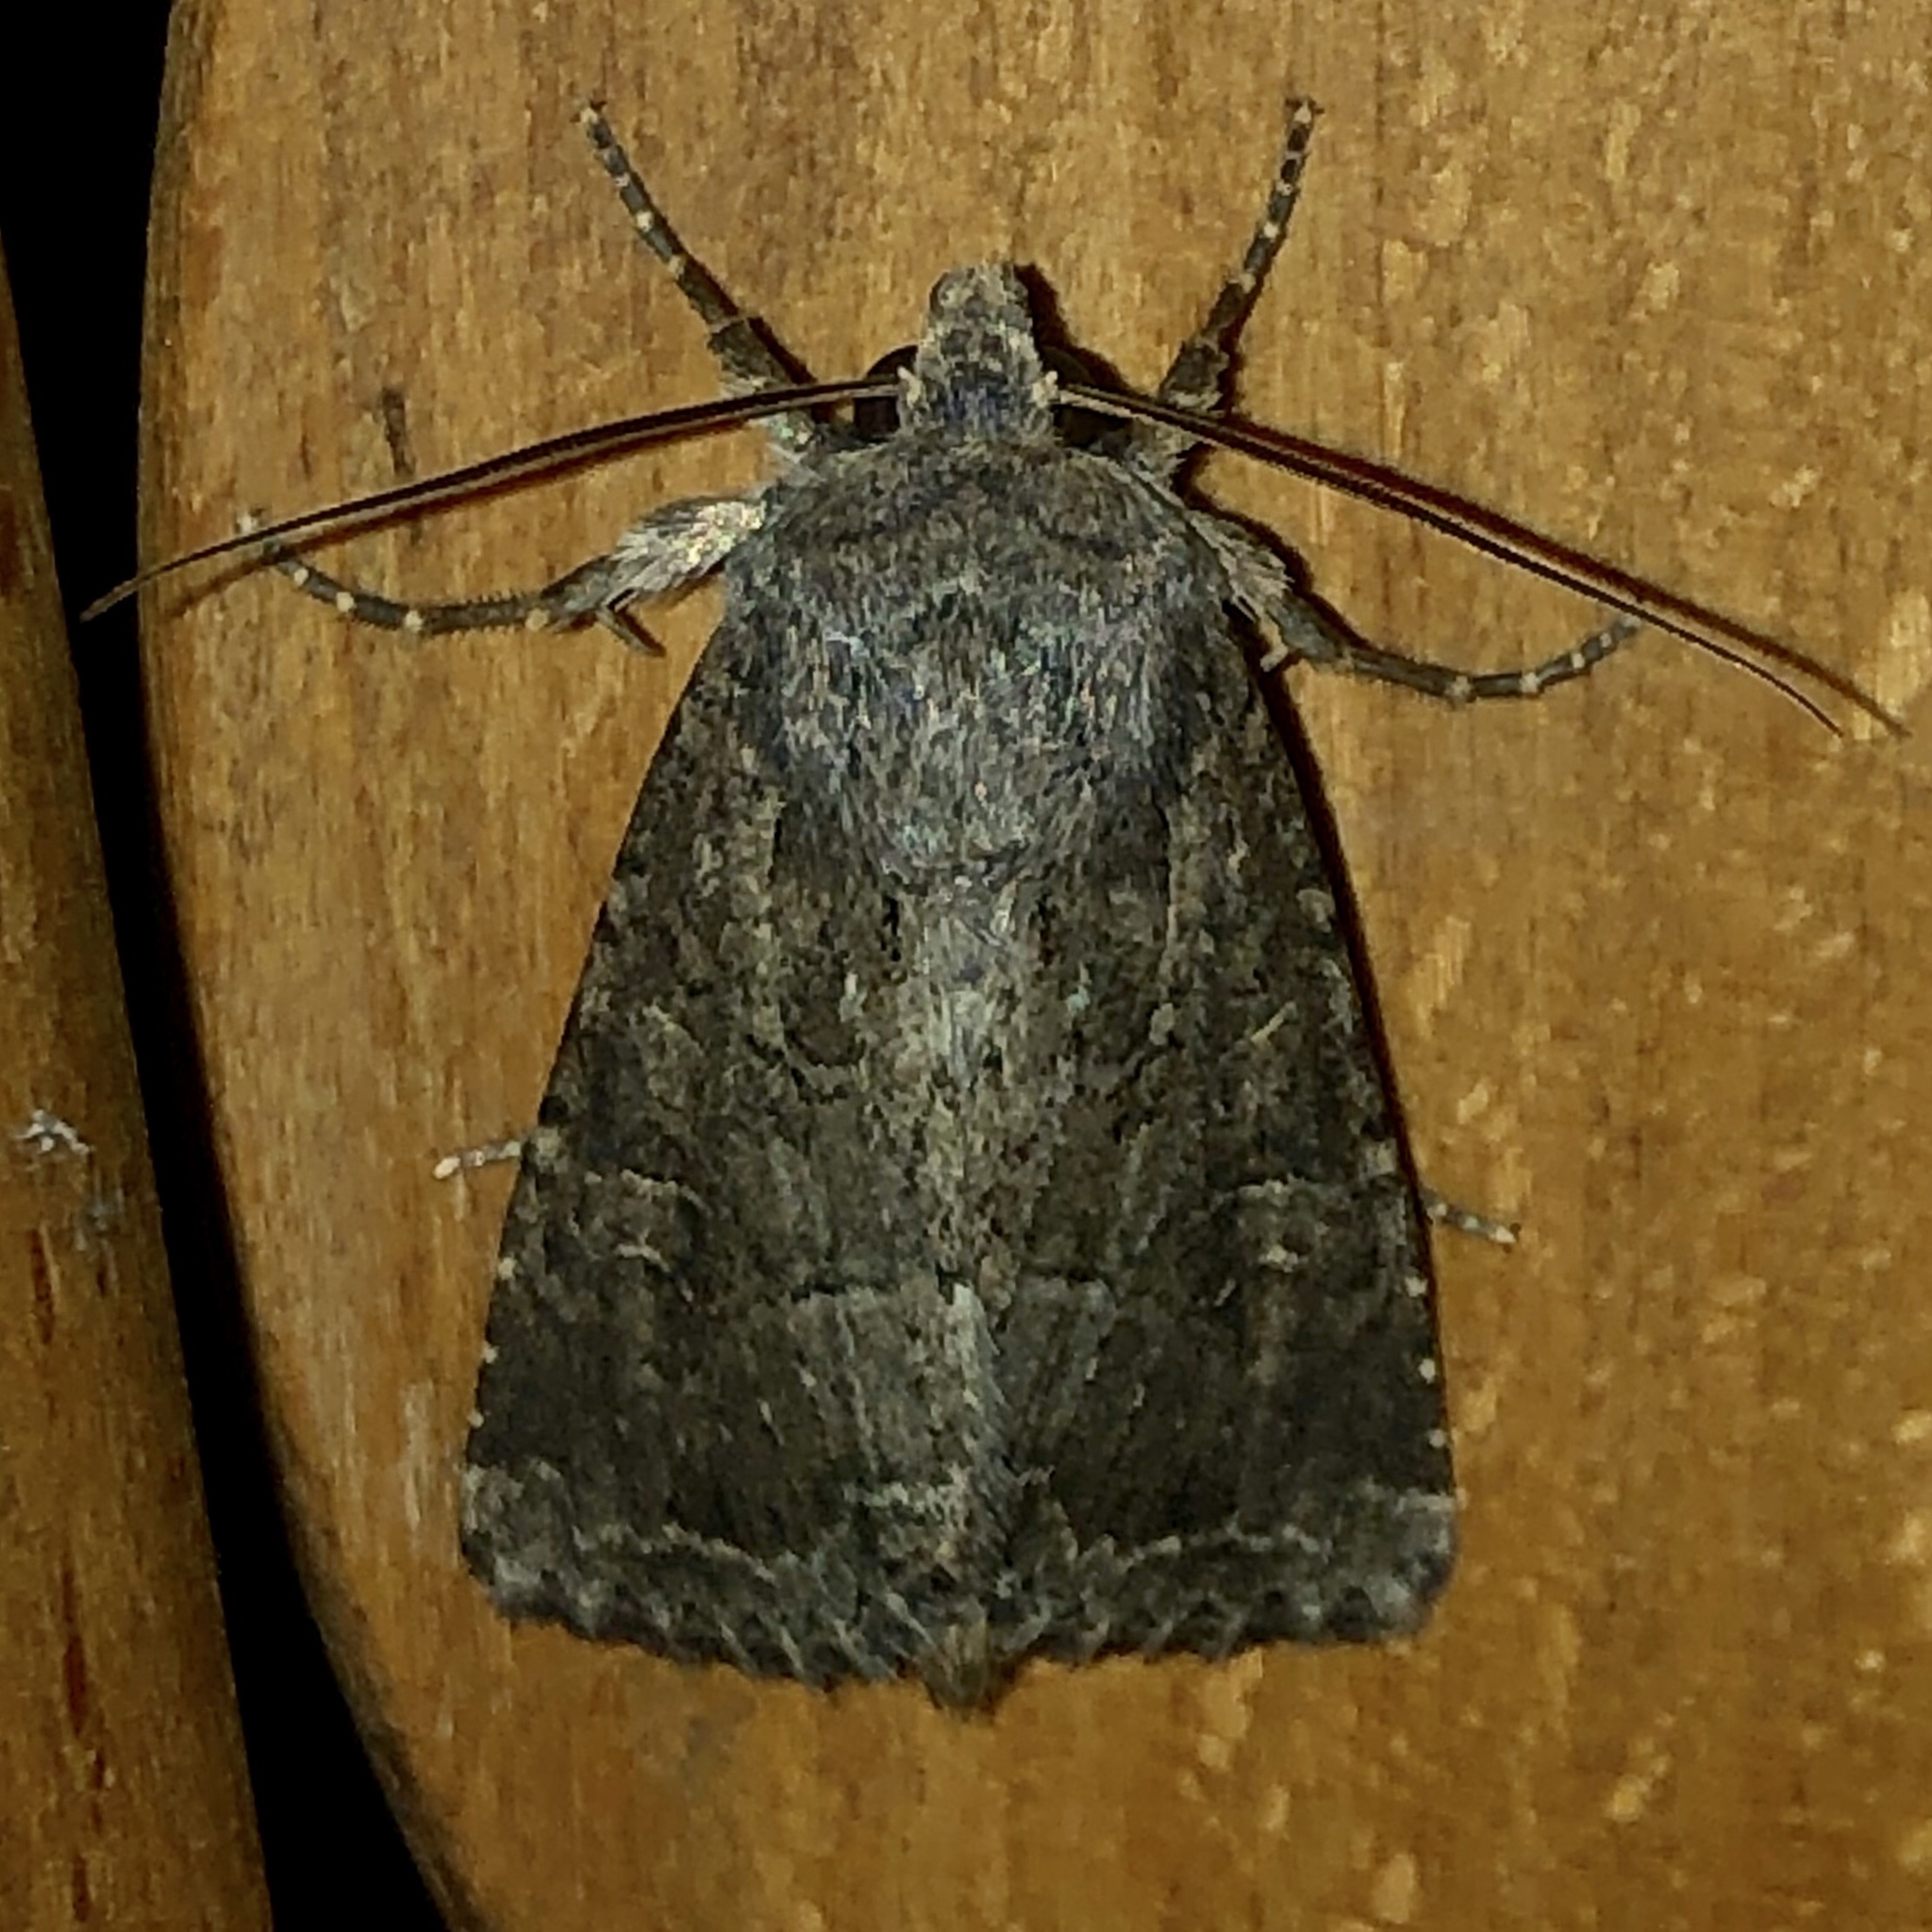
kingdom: Animalia
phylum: Arthropoda
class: Insecta
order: Lepidoptera
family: Noctuidae
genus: Apamea
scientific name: Apamea devastator
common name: Glassy cutworm
